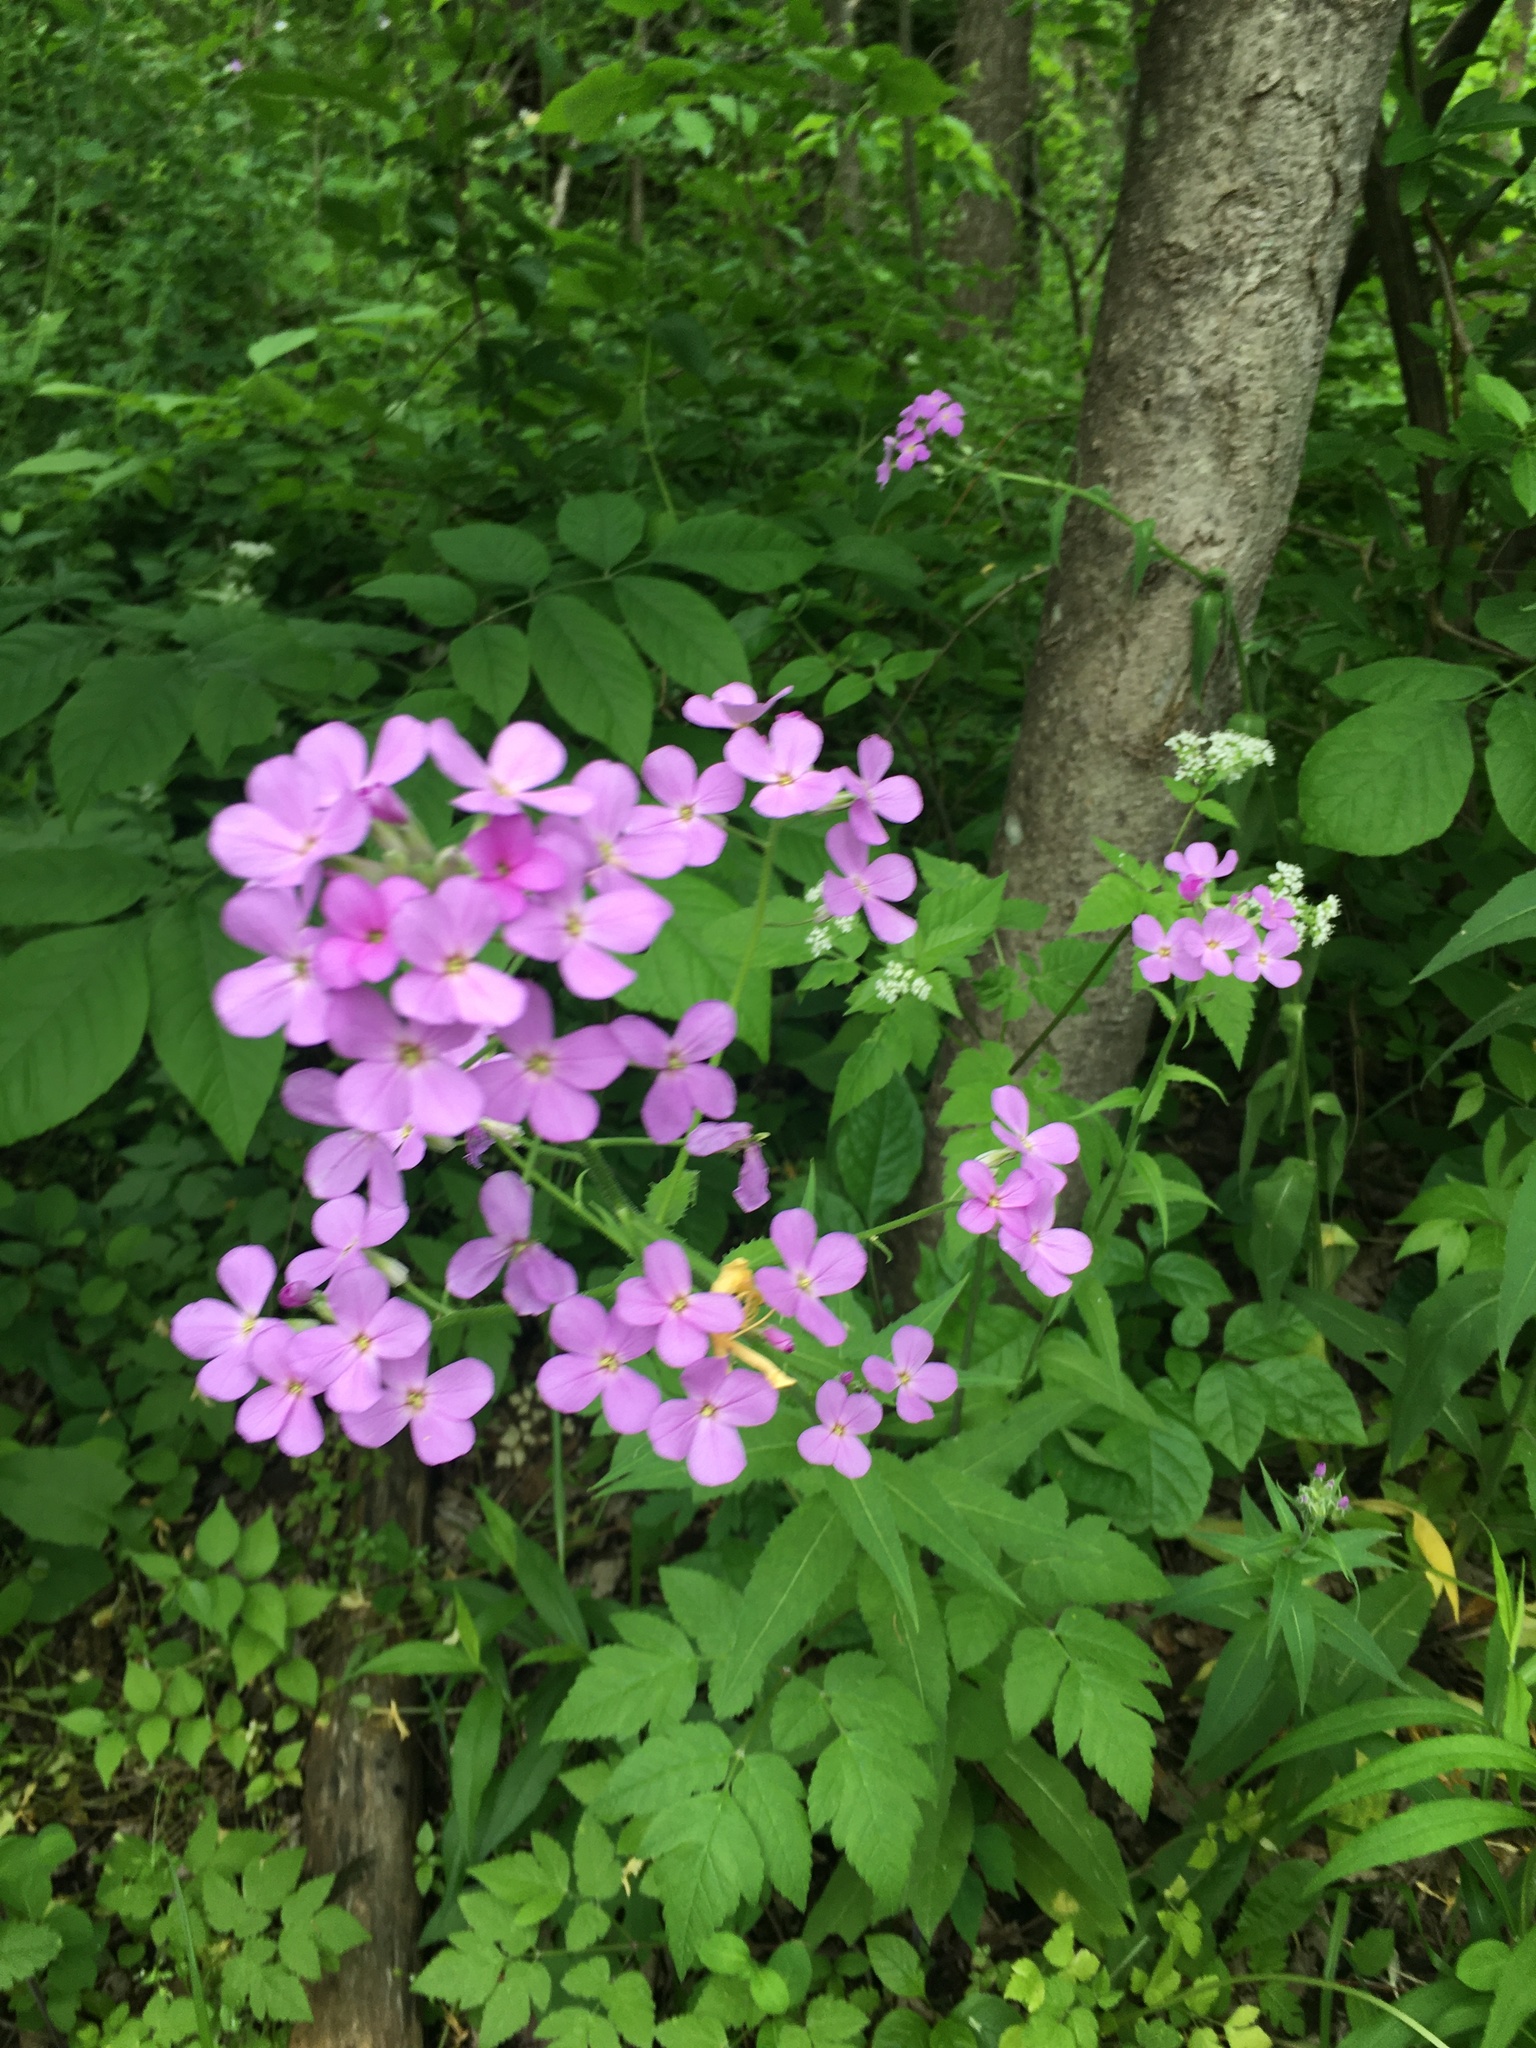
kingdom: Plantae
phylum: Tracheophyta
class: Magnoliopsida
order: Brassicales
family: Brassicaceae
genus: Hesperis
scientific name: Hesperis matronalis
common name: Dame's-violet
